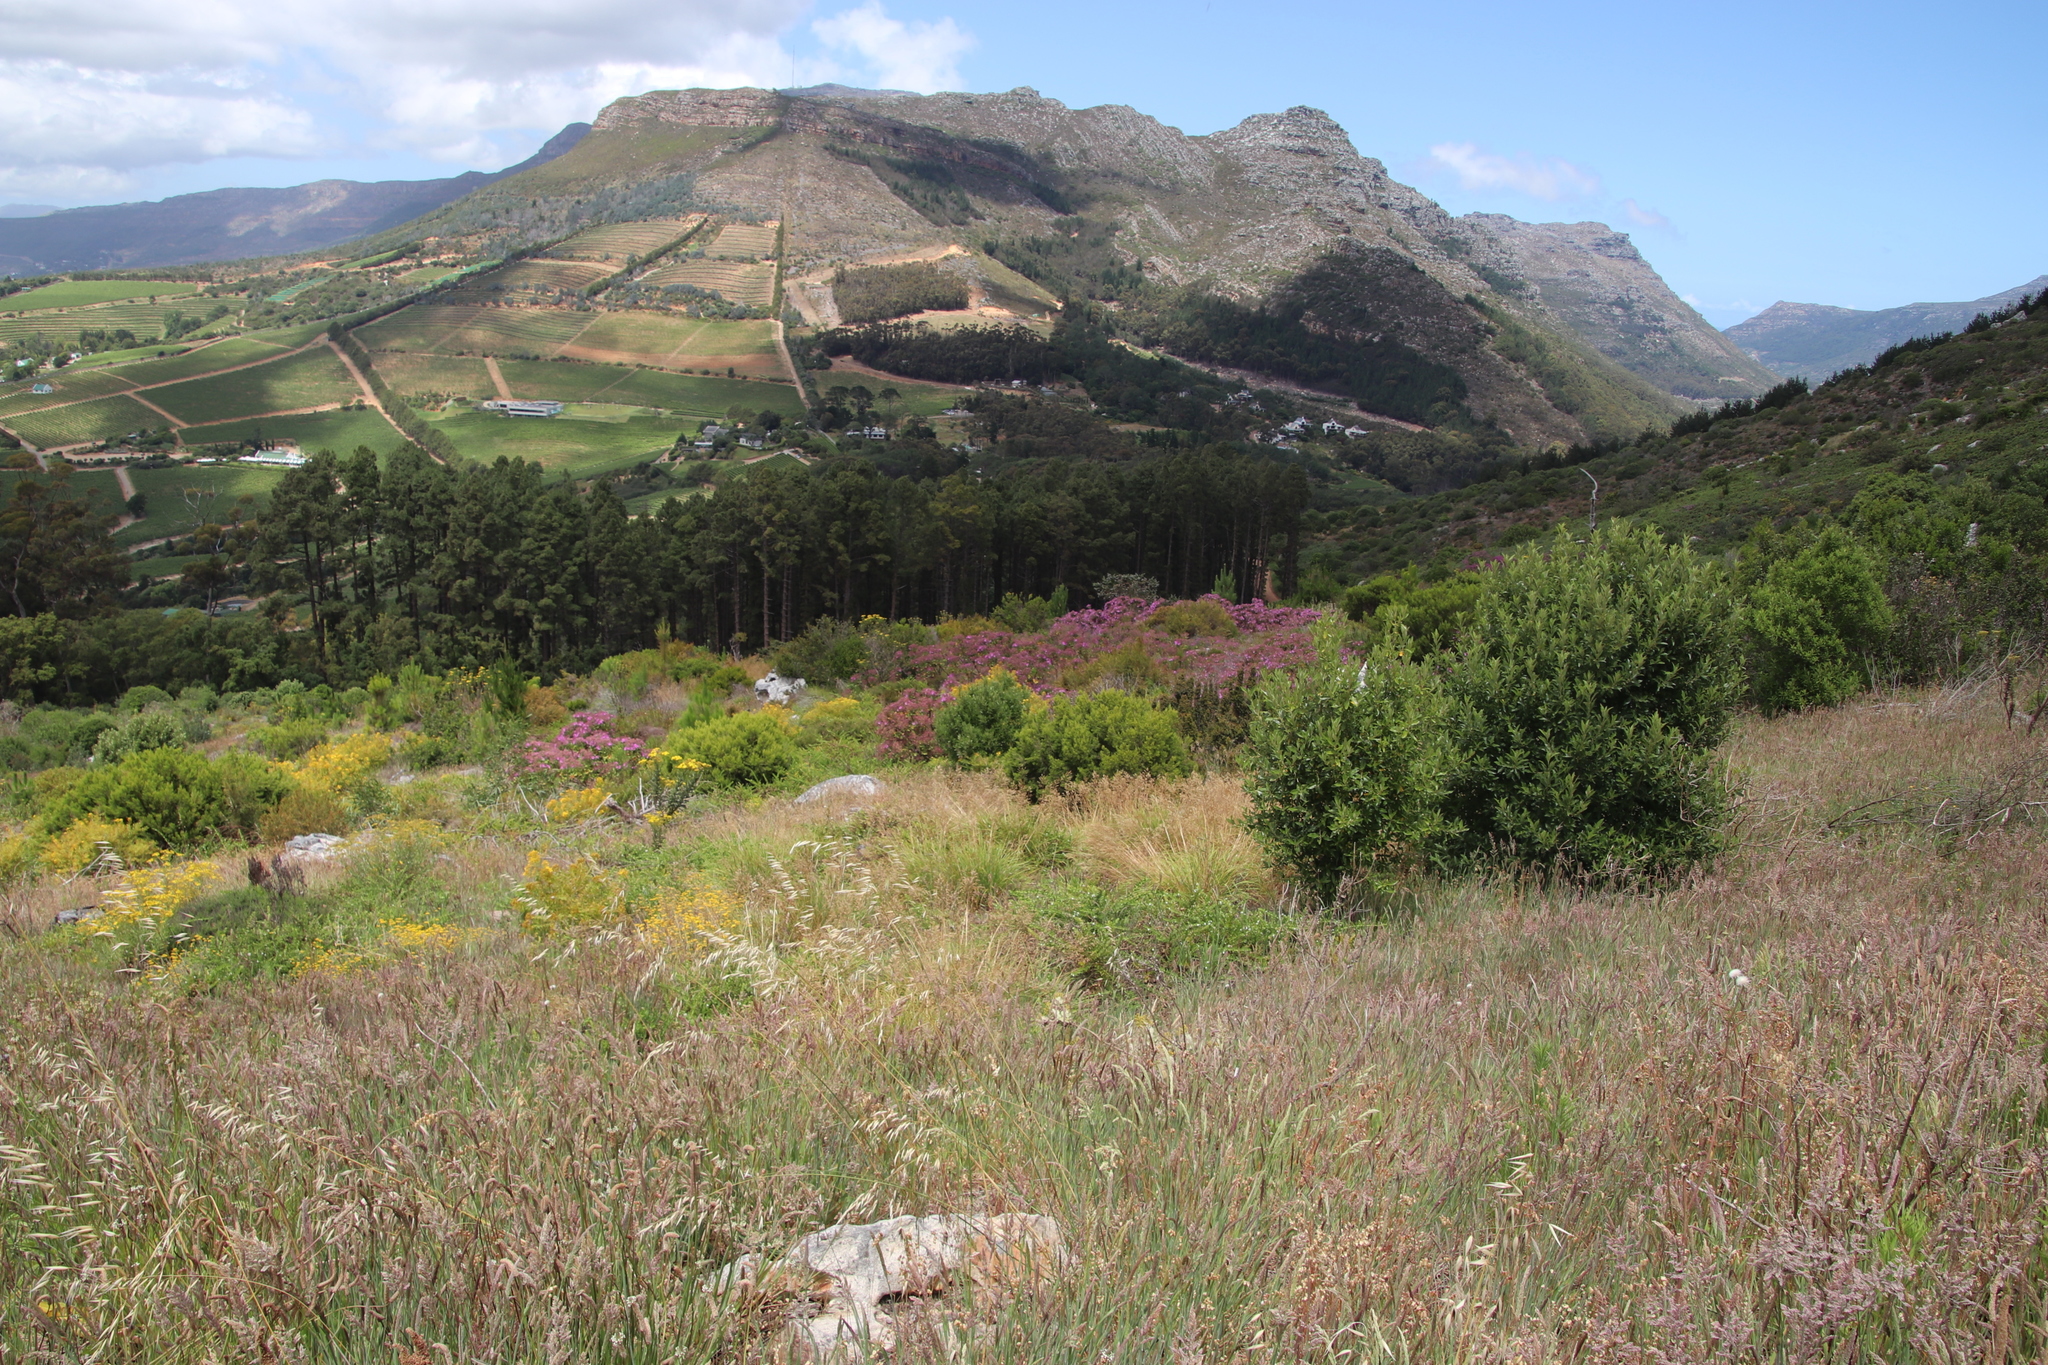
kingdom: Plantae
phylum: Tracheophyta
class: Magnoliopsida
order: Malpighiales
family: Hypericaceae
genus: Hypericum
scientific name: Hypericum canariense
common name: Canary island st. johnswort
